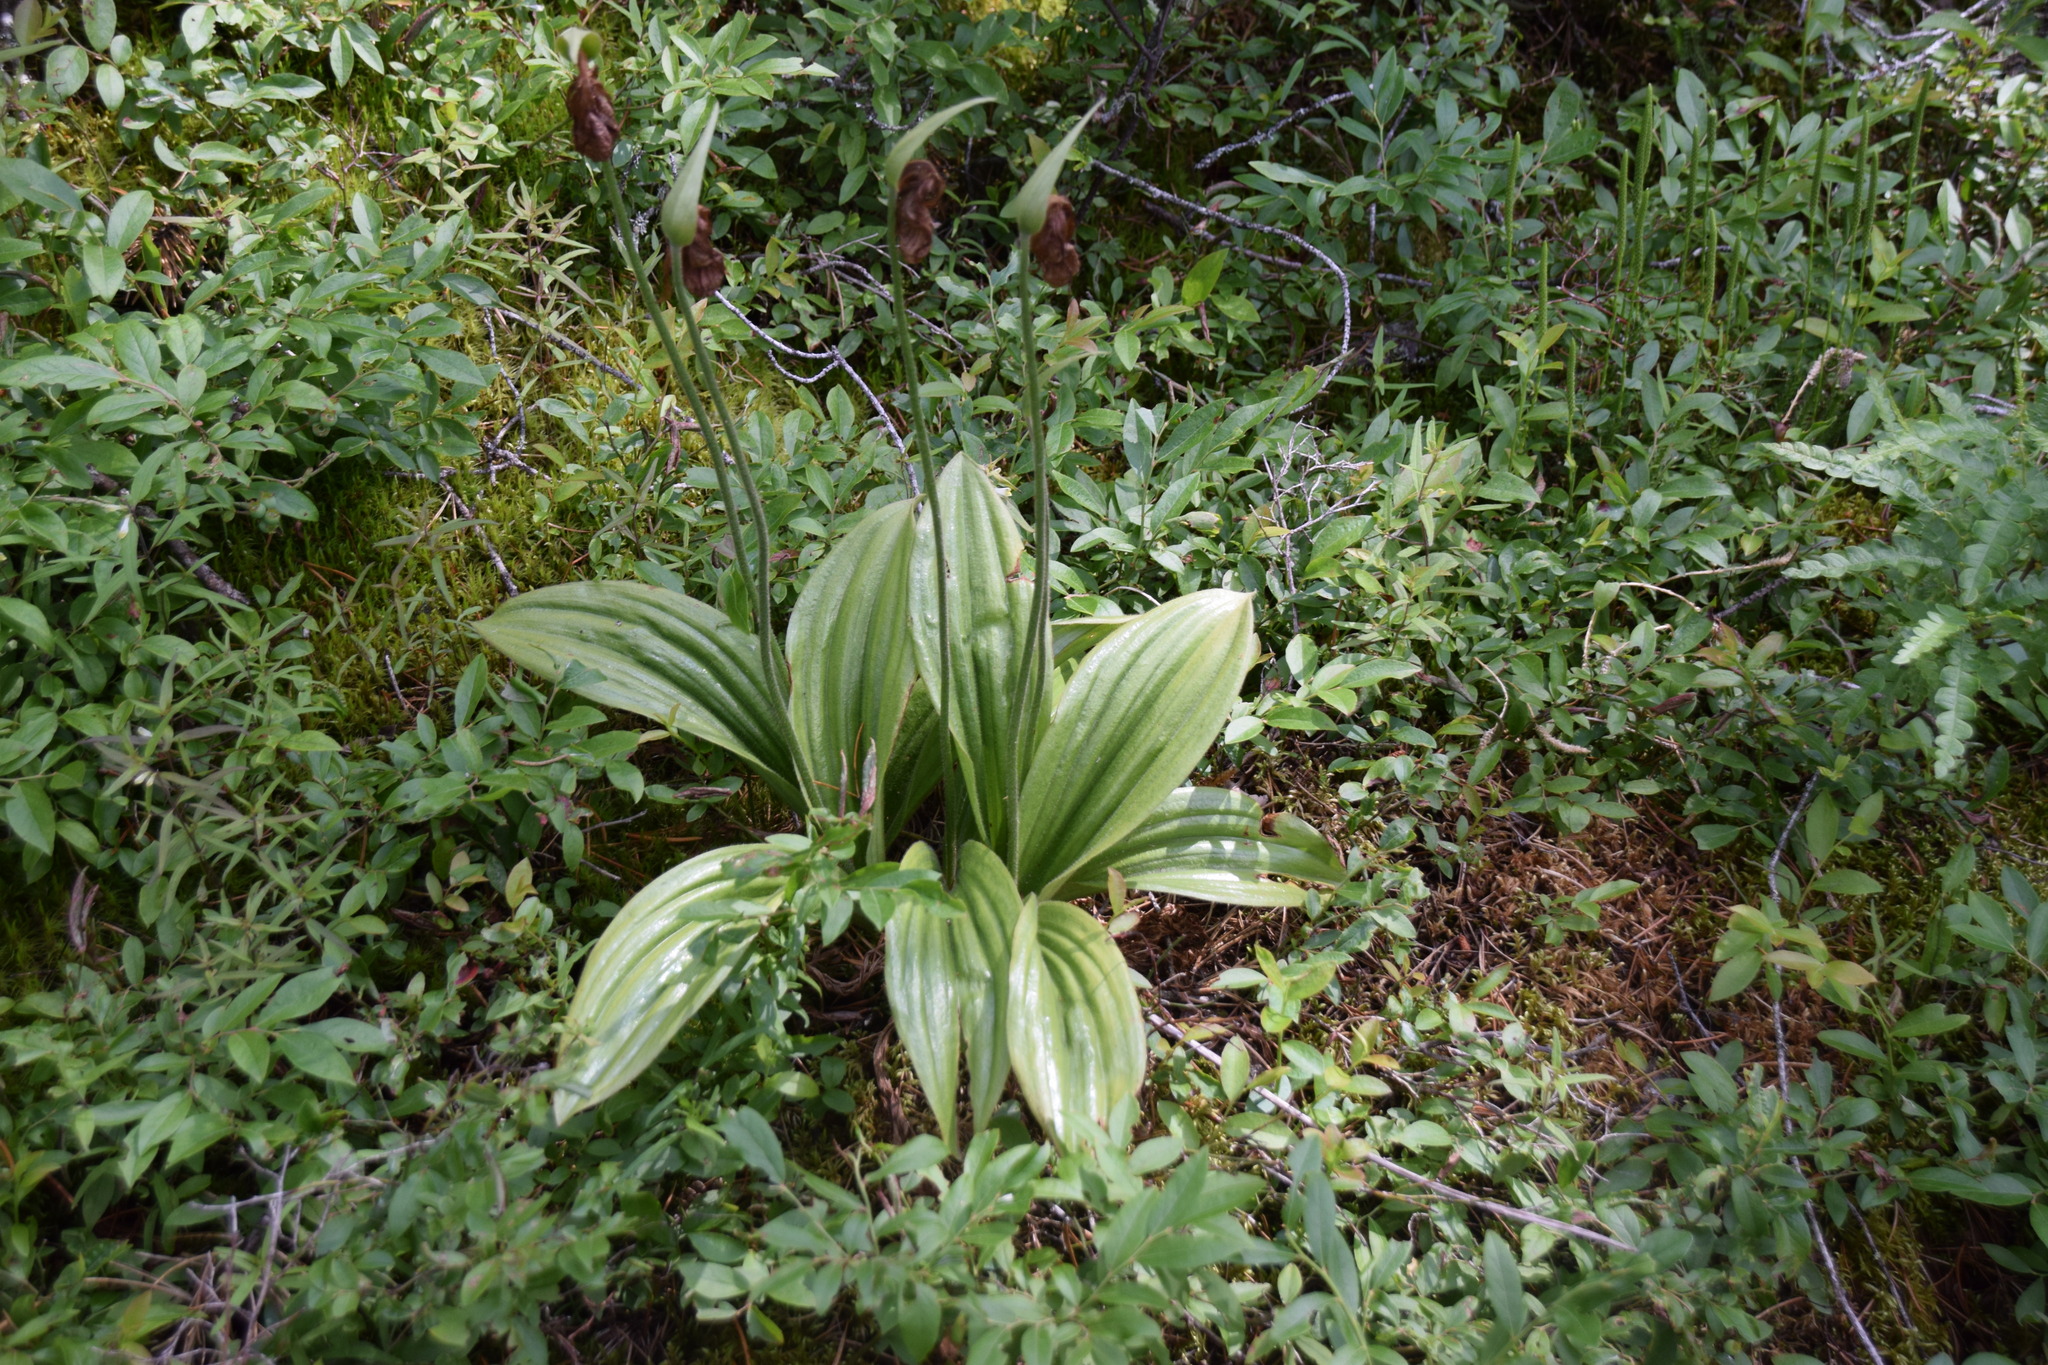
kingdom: Plantae
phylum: Tracheophyta
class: Liliopsida
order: Asparagales
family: Orchidaceae
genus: Cypripedium
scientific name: Cypripedium acaule
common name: Pink lady's-slipper
